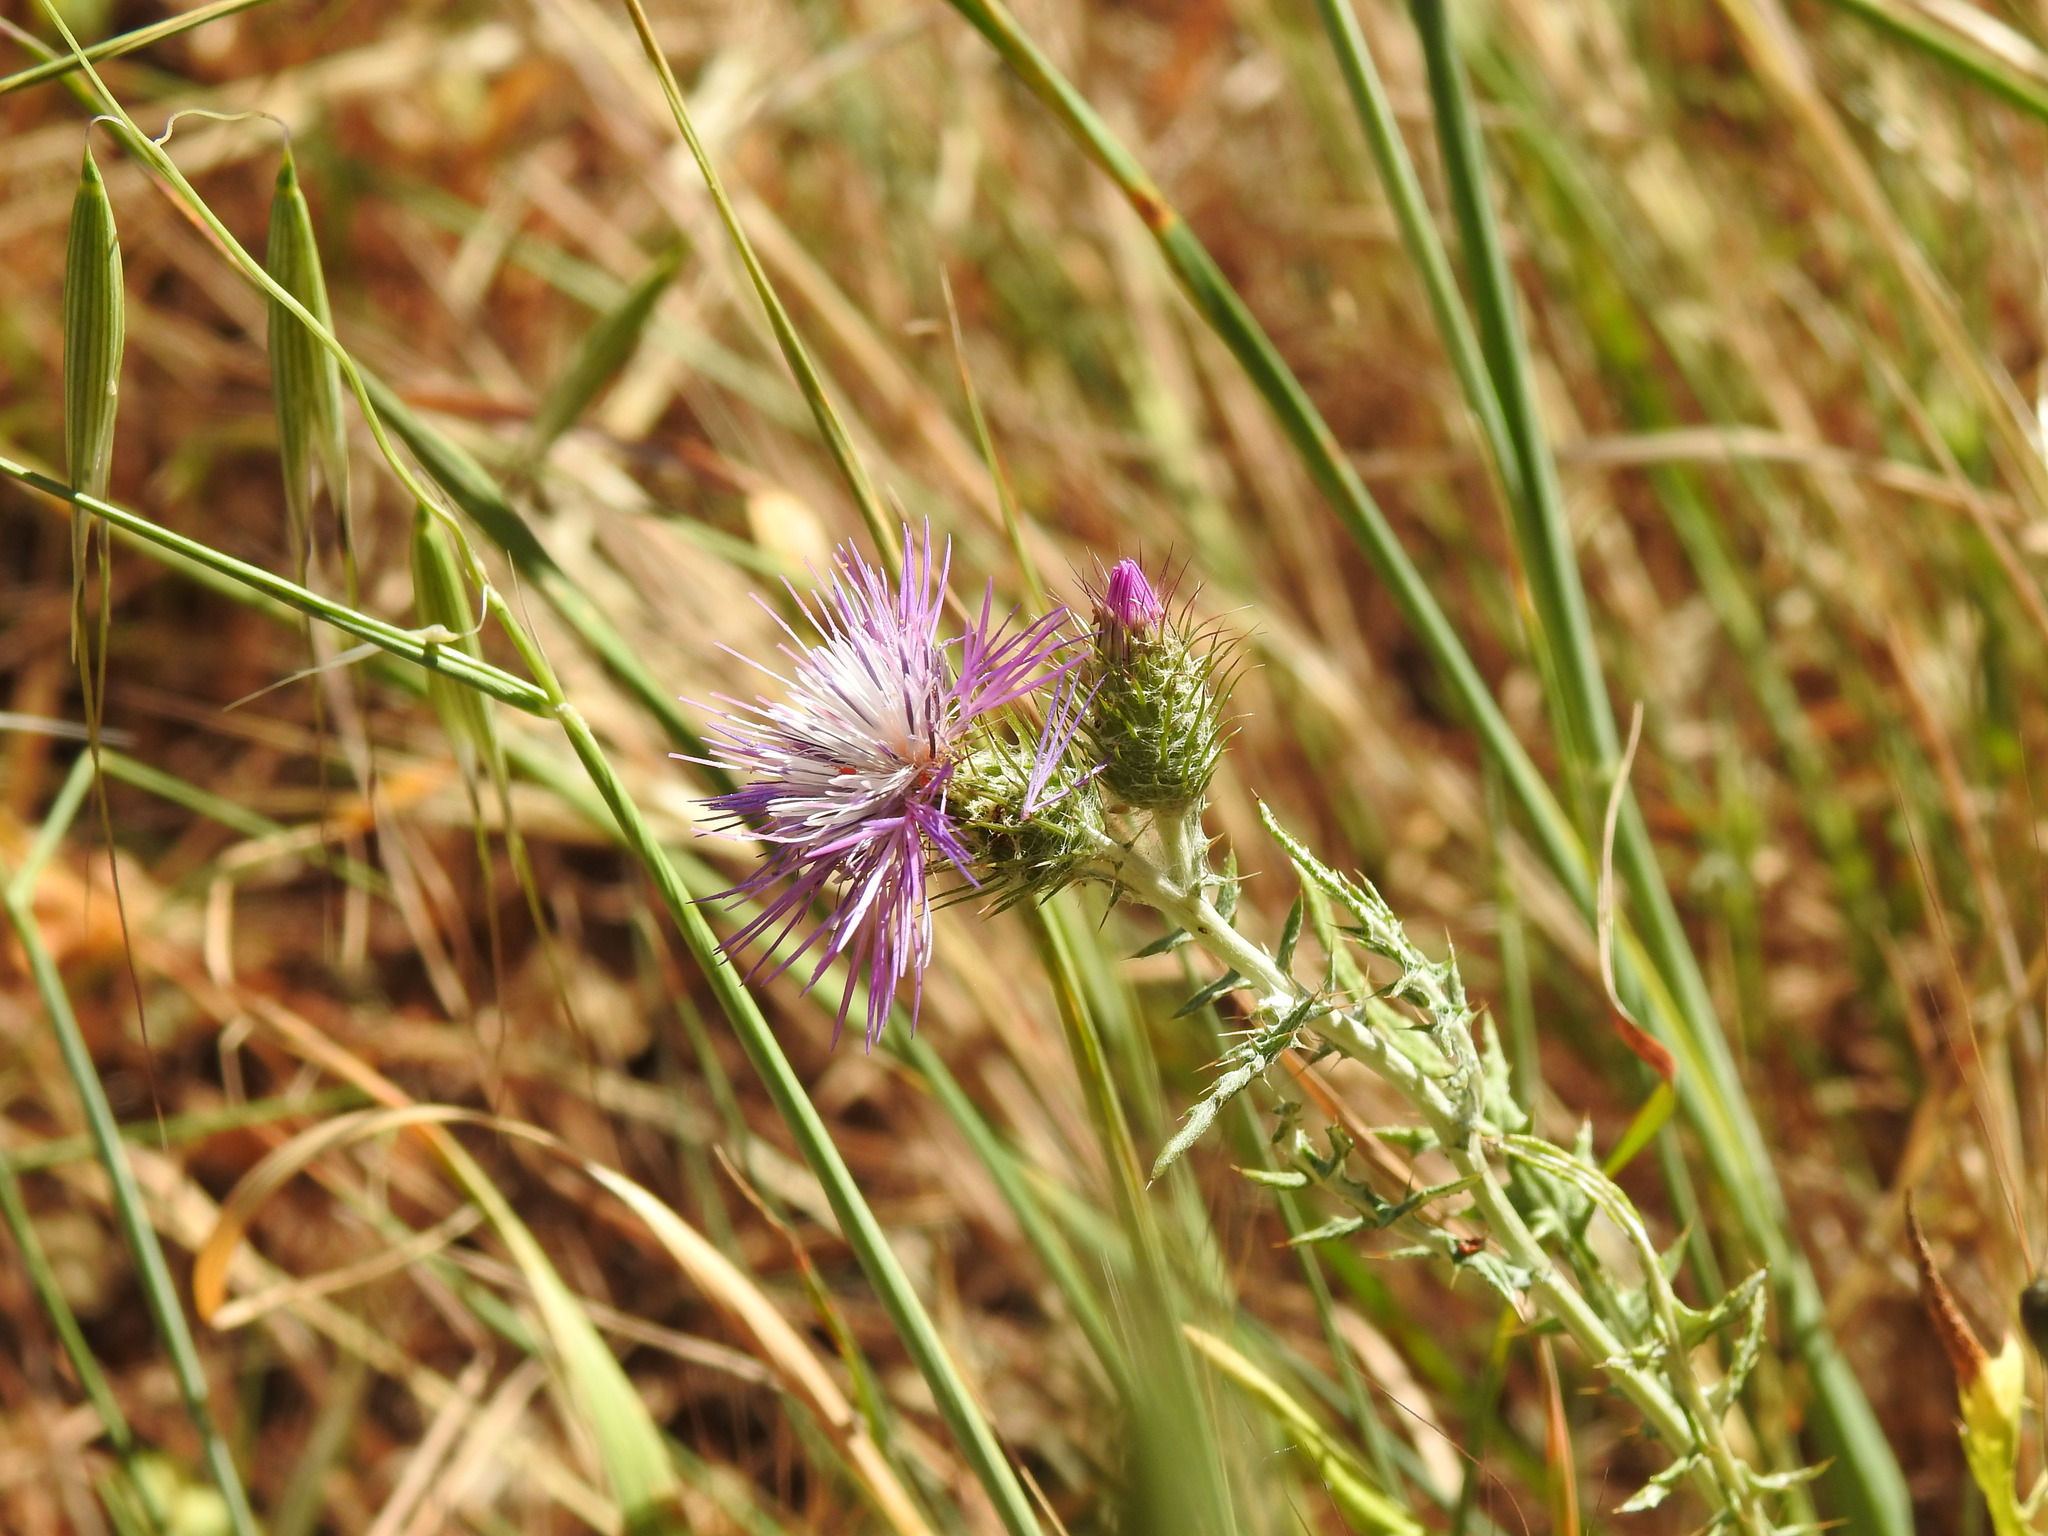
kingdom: Plantae
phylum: Tracheophyta
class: Magnoliopsida
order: Asterales
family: Asteraceae
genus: Galactites
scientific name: Galactites tomentosa
